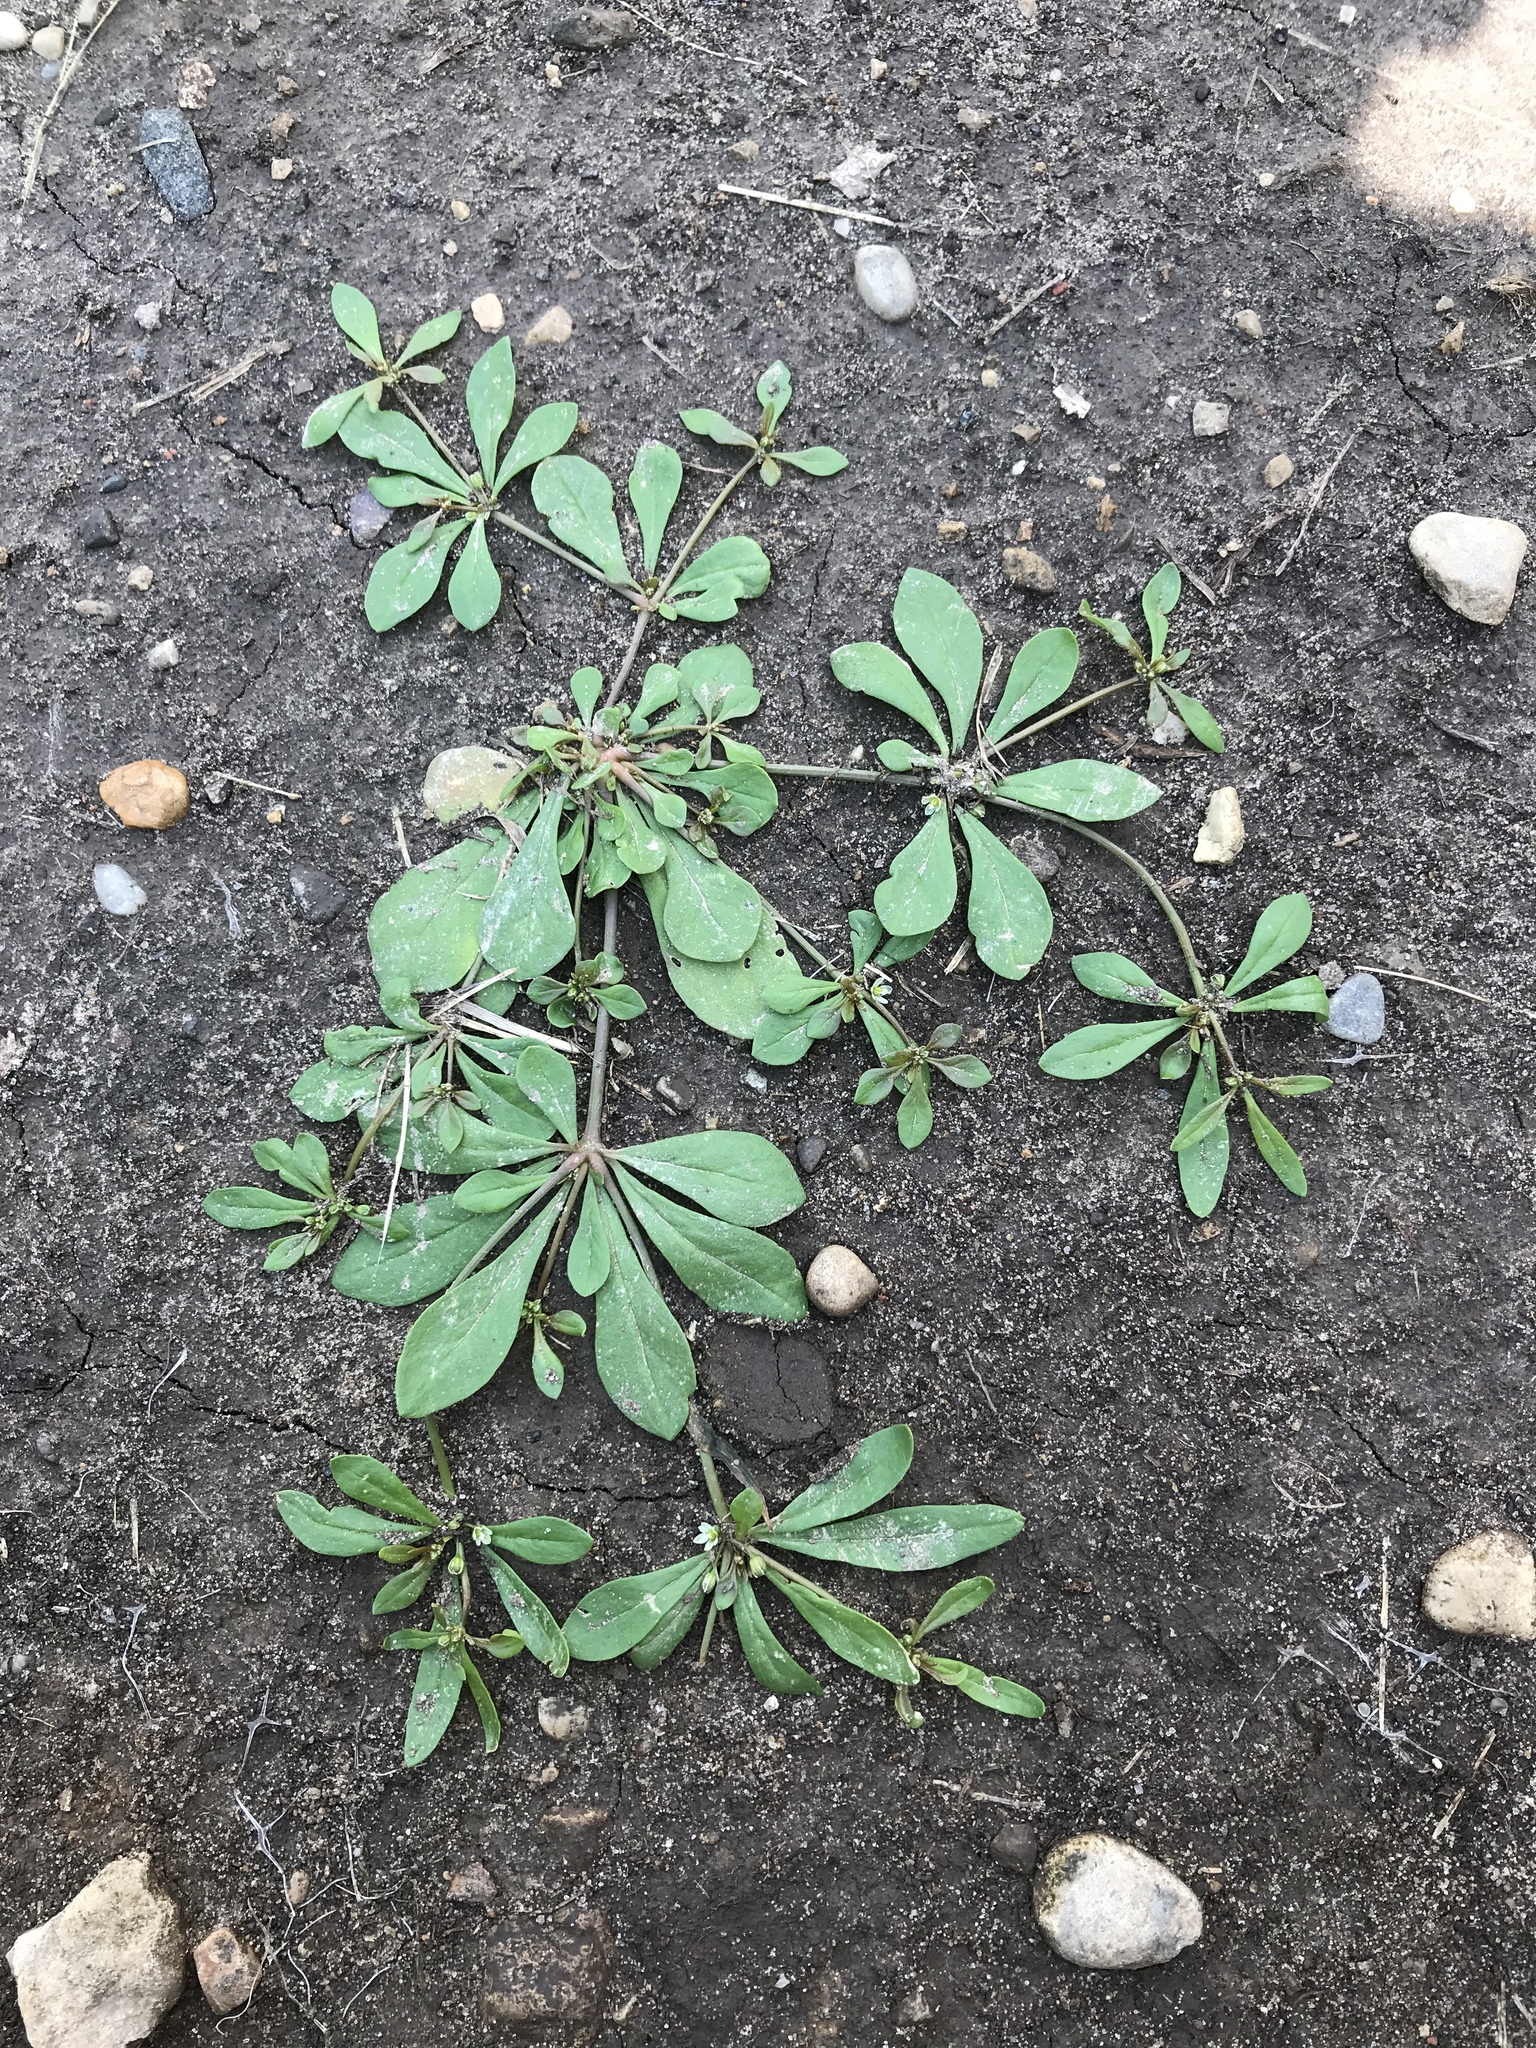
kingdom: Plantae
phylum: Tracheophyta
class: Magnoliopsida
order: Caryophyllales
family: Molluginaceae
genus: Mollugo
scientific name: Mollugo verticillata
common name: Green carpetweed
